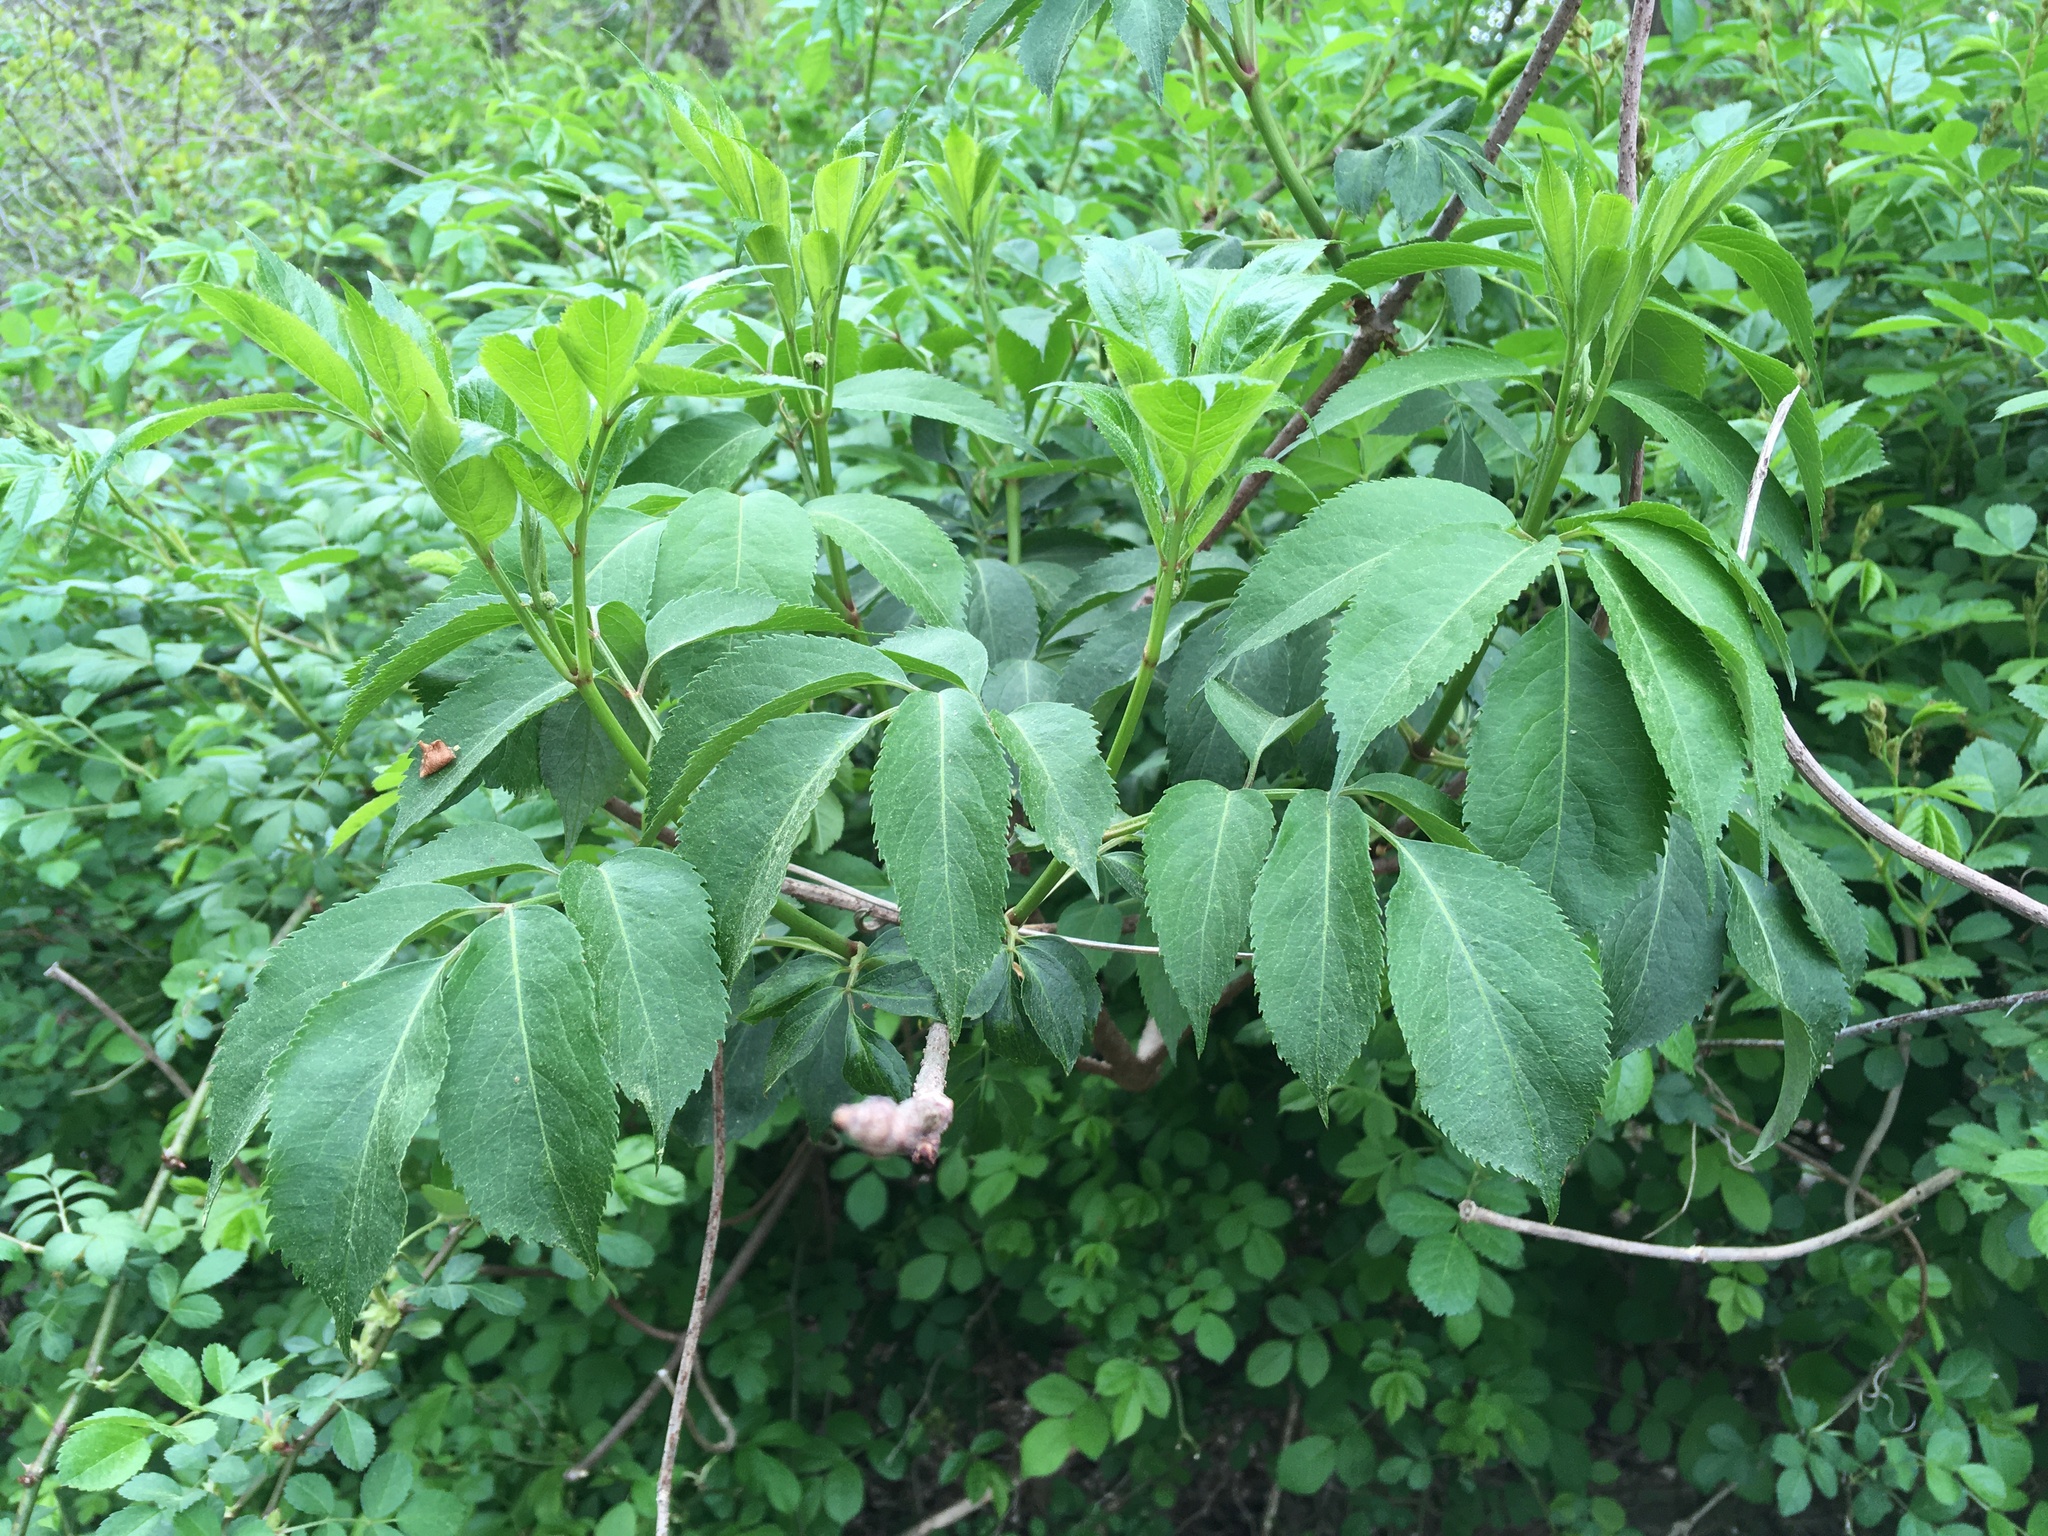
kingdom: Plantae
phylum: Tracheophyta
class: Magnoliopsida
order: Dipsacales
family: Viburnaceae
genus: Sambucus
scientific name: Sambucus canadensis
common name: American elder
